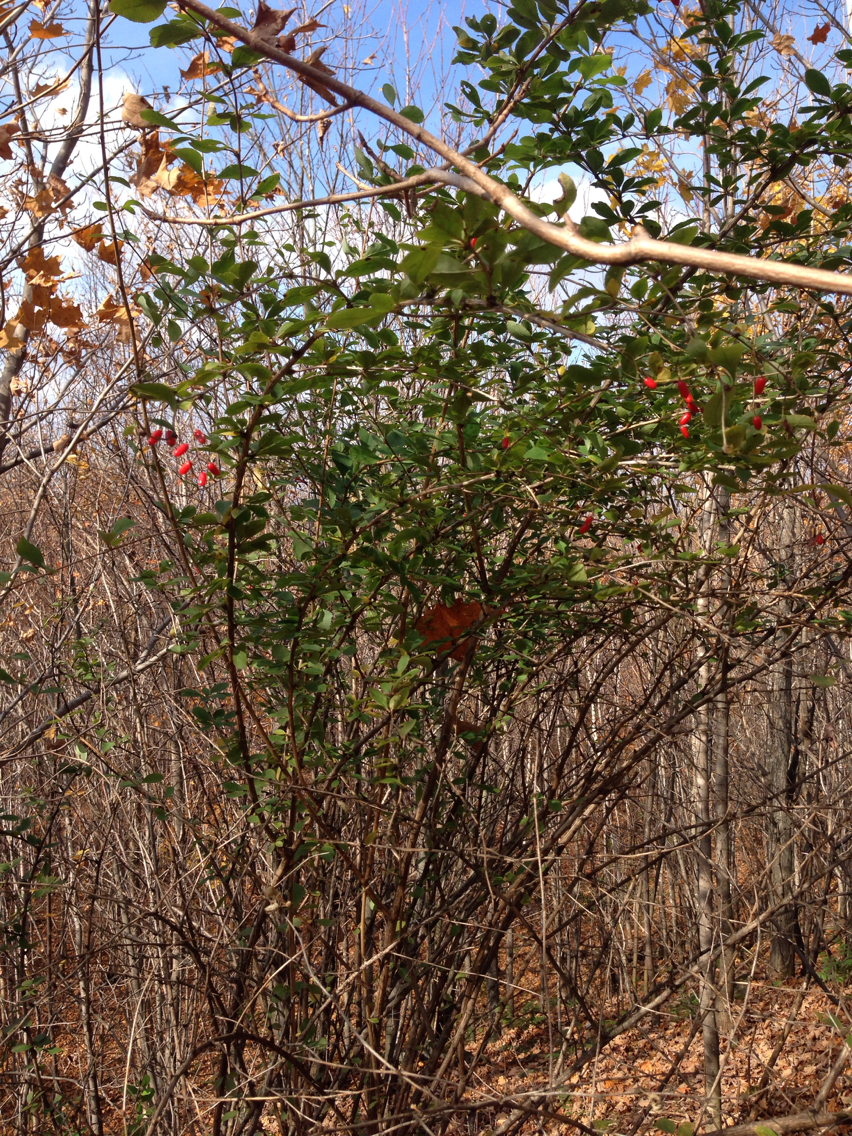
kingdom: Plantae
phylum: Tracheophyta
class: Magnoliopsida
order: Ranunculales
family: Berberidaceae
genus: Berberis
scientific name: Berberis vulgaris
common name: Barberry
